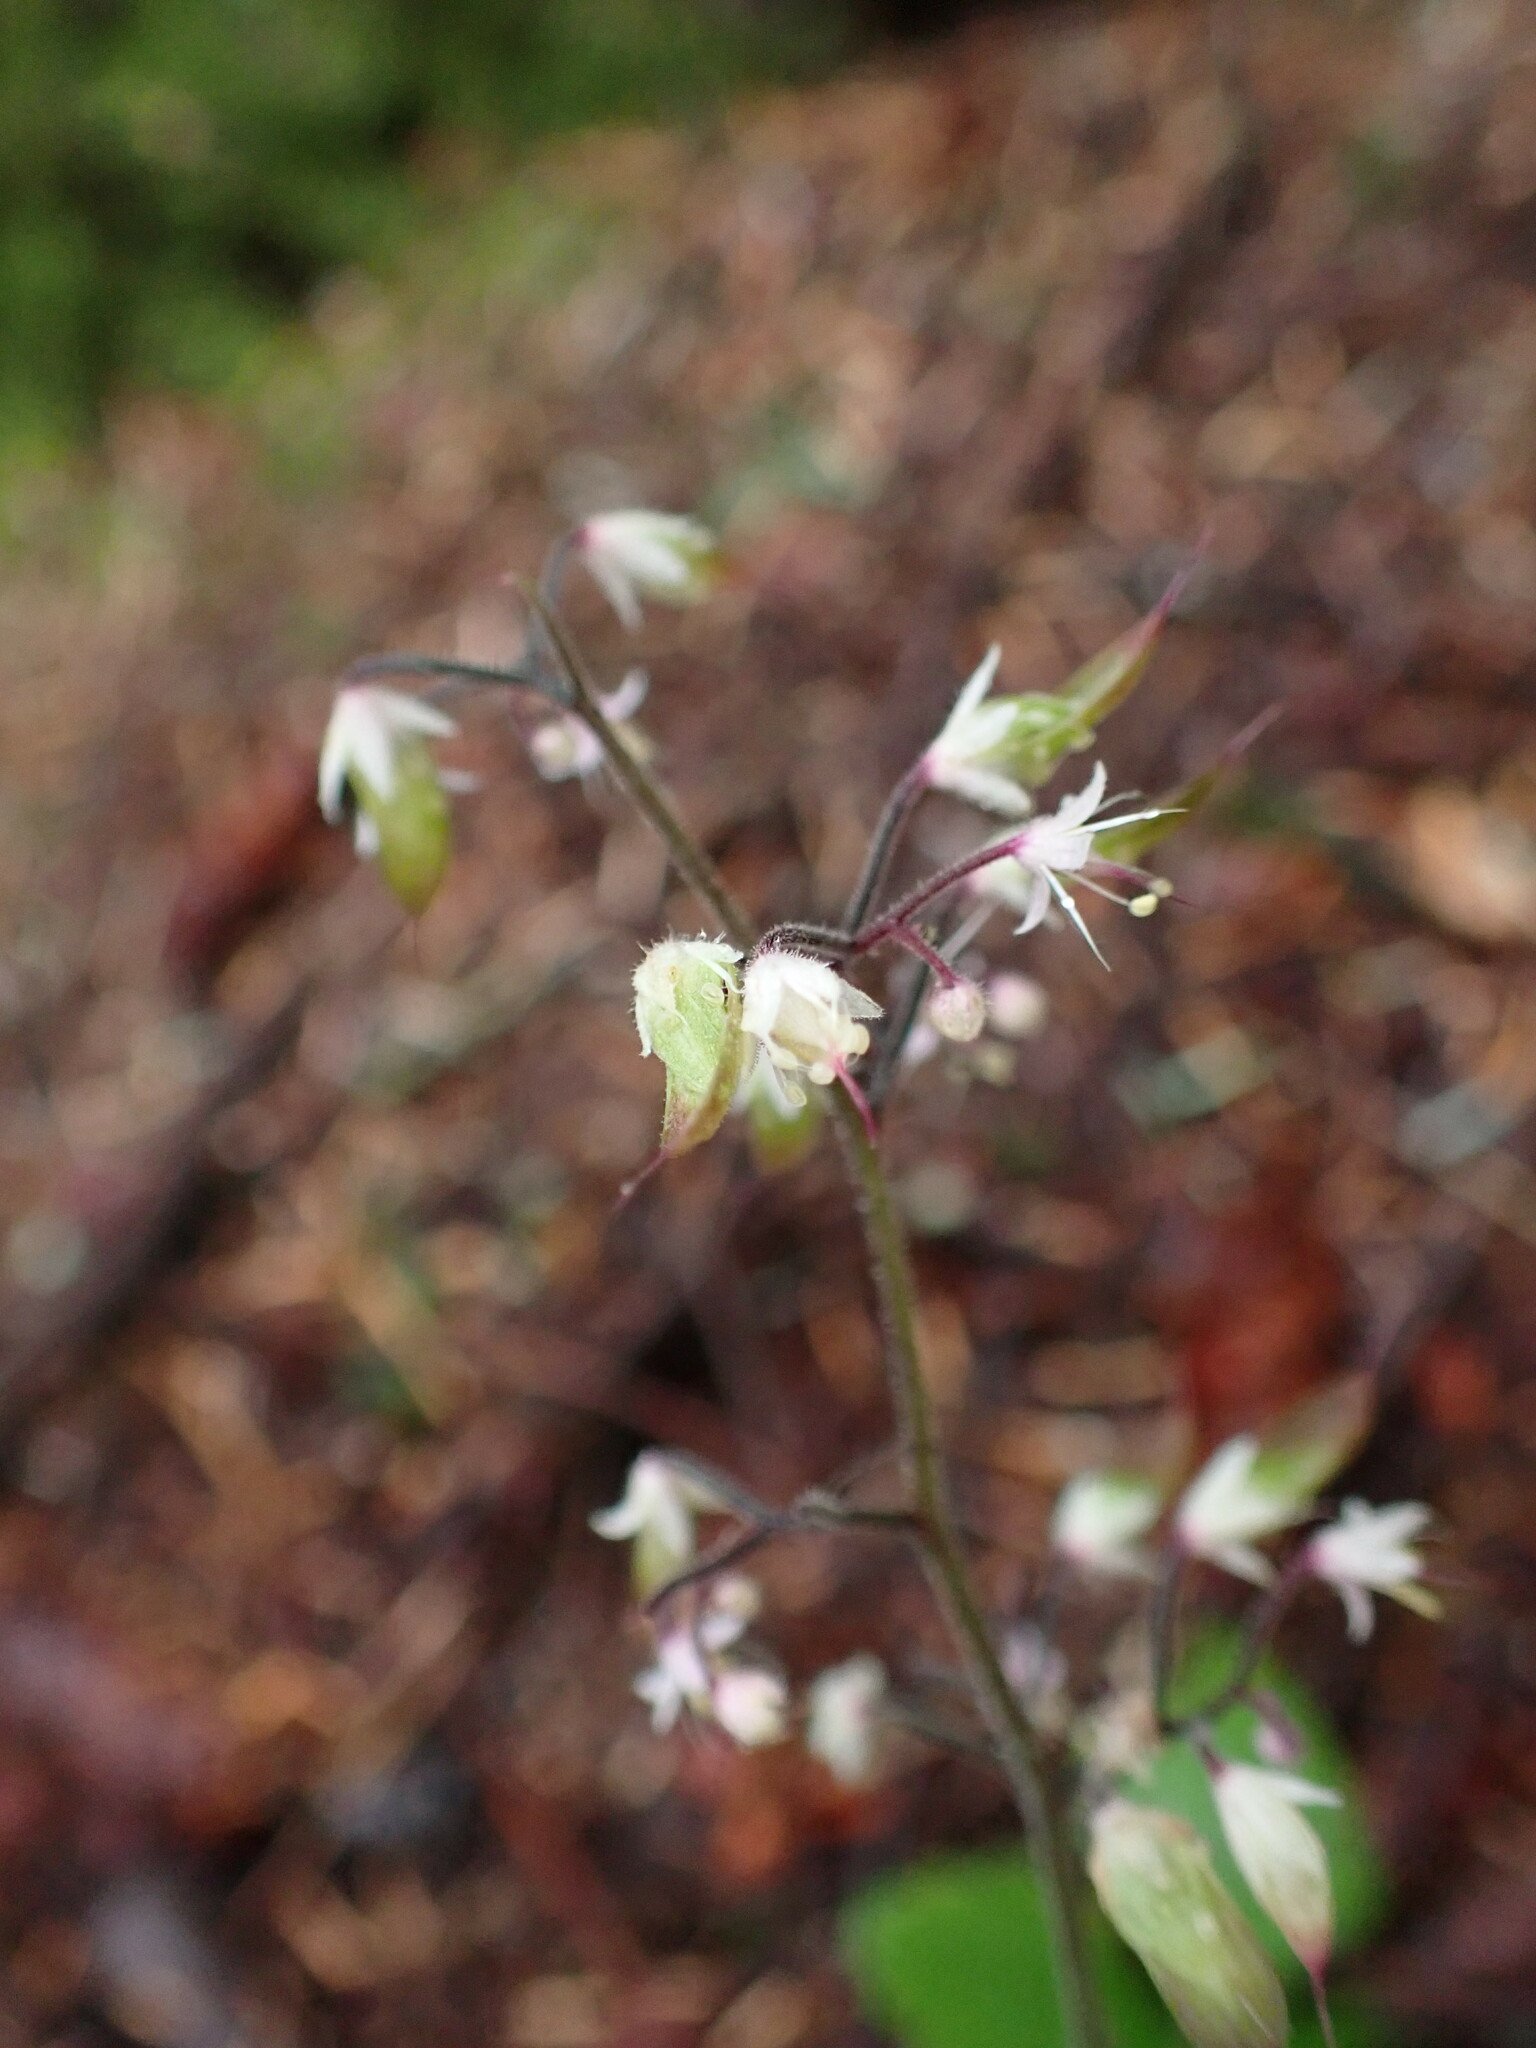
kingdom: Plantae
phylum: Tracheophyta
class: Magnoliopsida
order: Saxifragales
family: Saxifragaceae
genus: Tiarella
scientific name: Tiarella trifoliata
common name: Sugar-scoop
